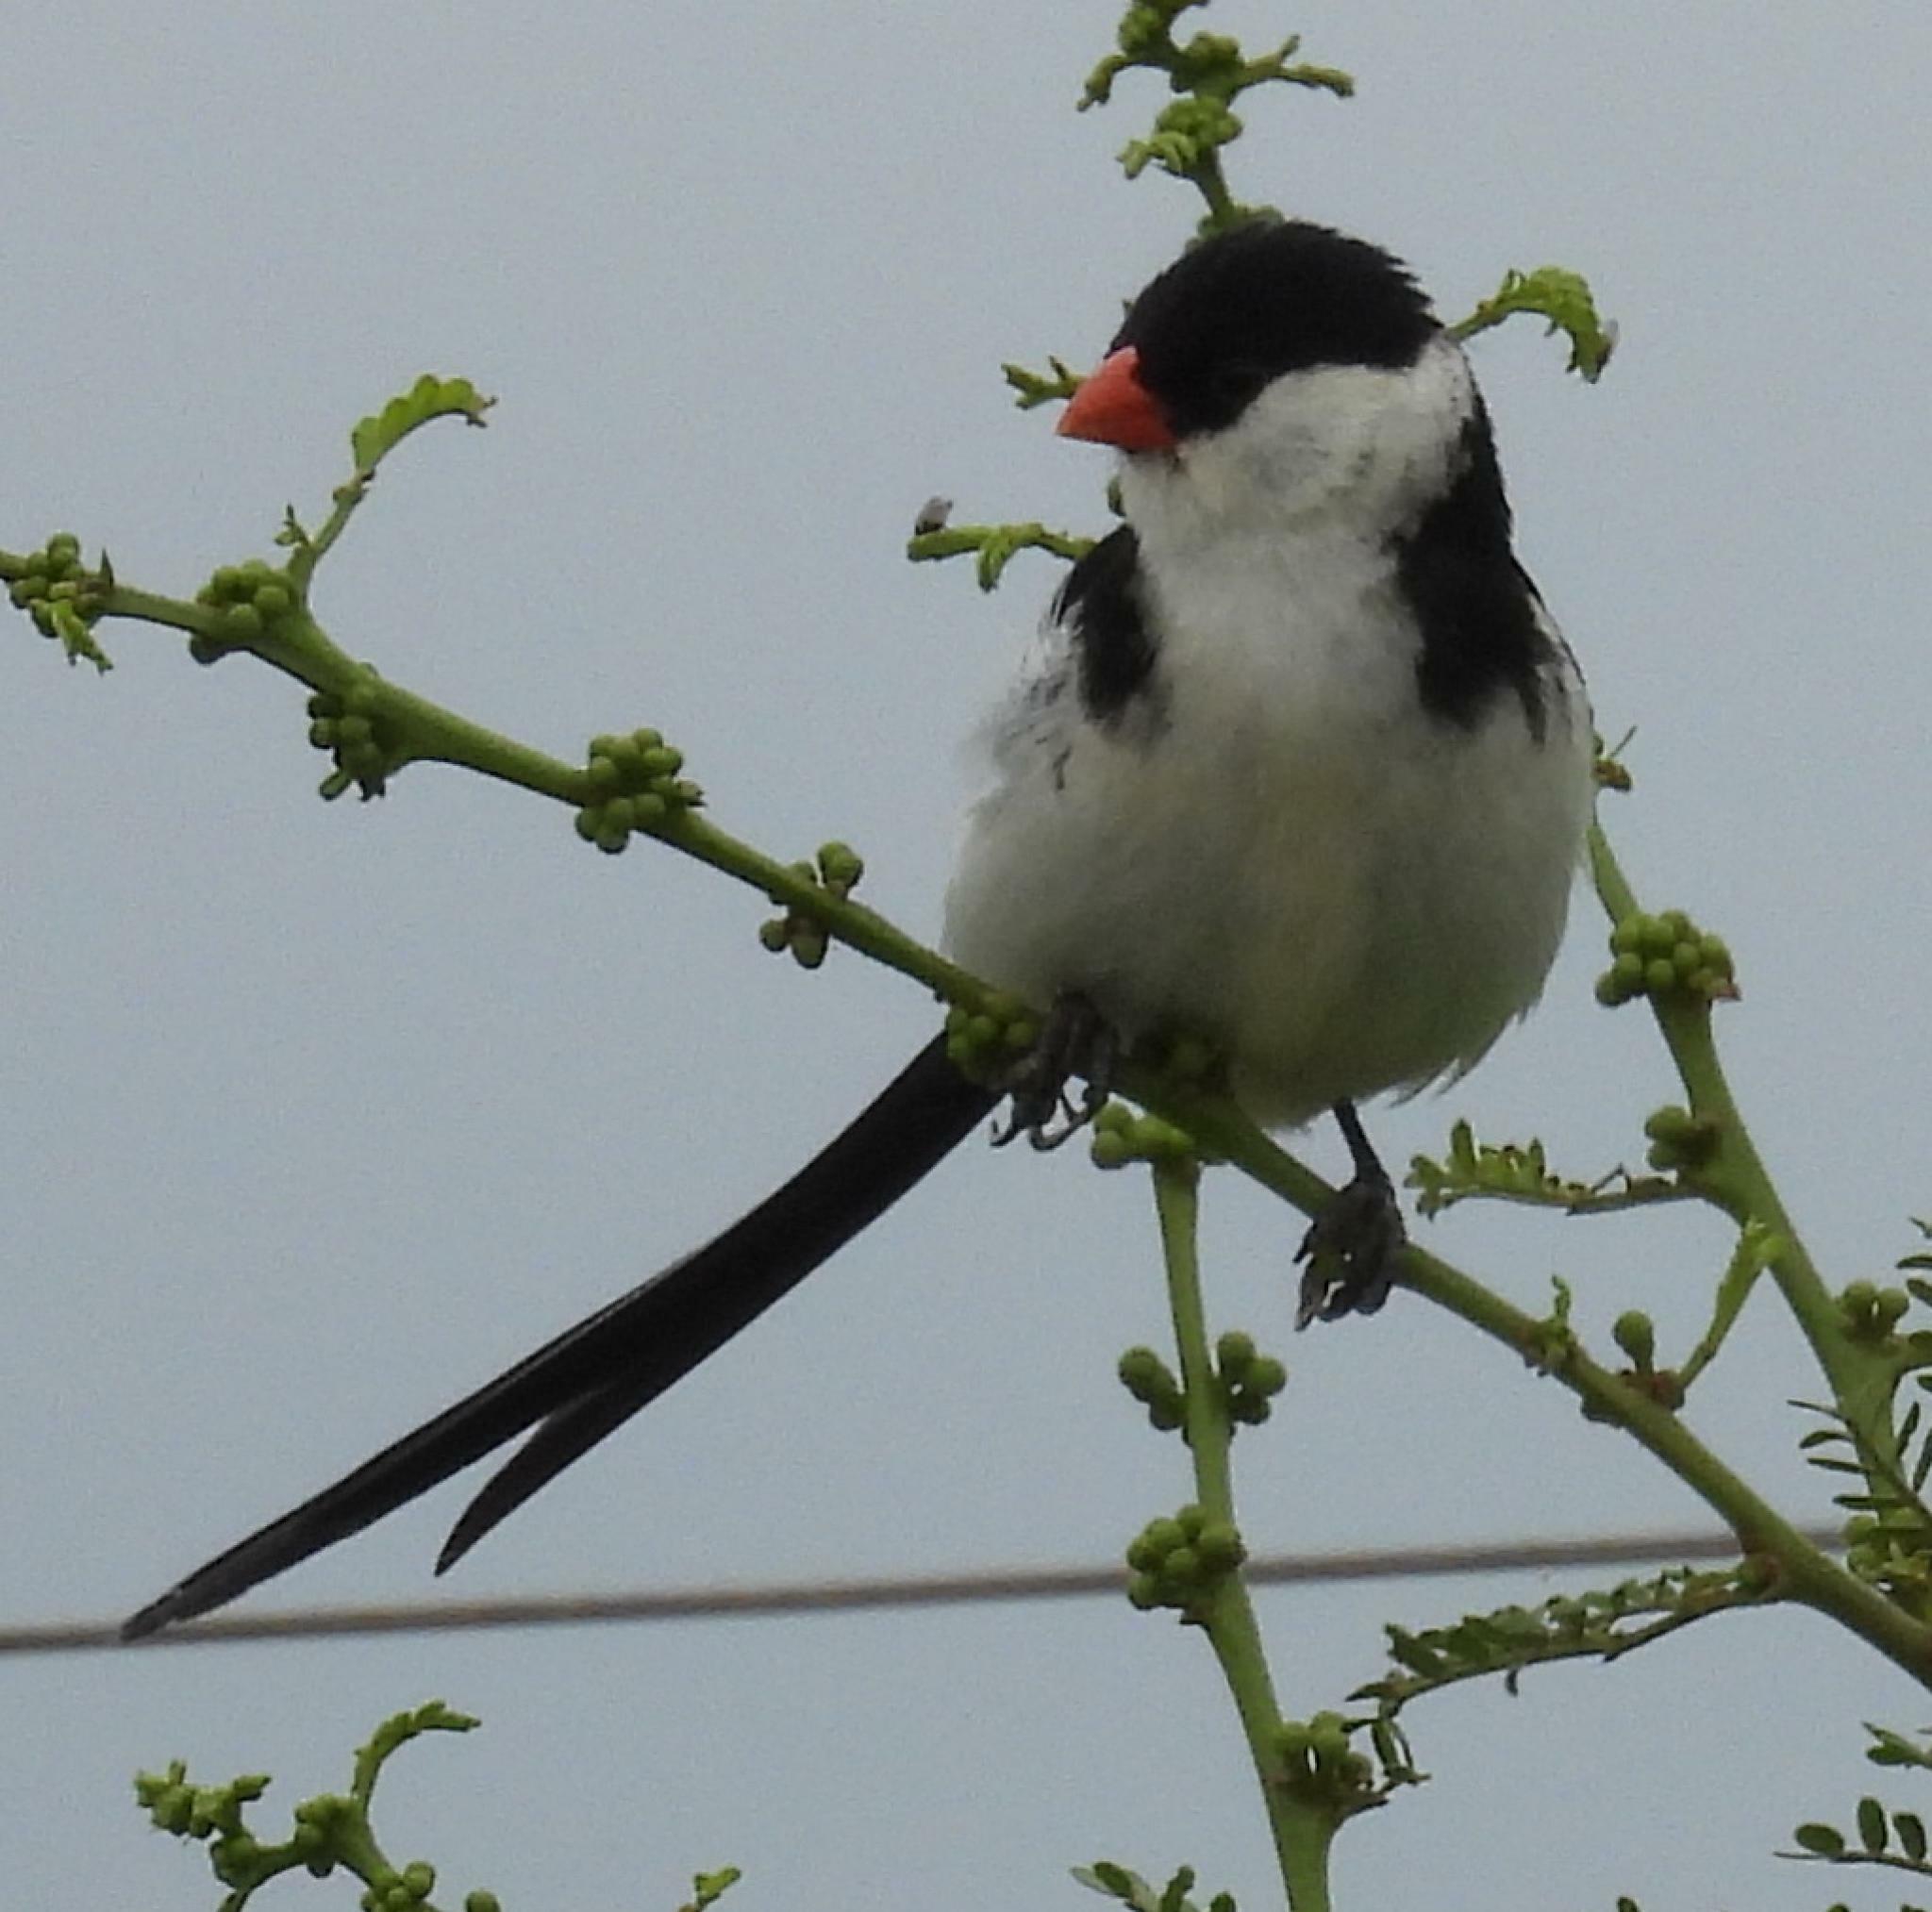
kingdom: Animalia
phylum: Chordata
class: Aves
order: Passeriformes
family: Viduidae
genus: Vidua
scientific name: Vidua macroura
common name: Pin-tailed whydah
